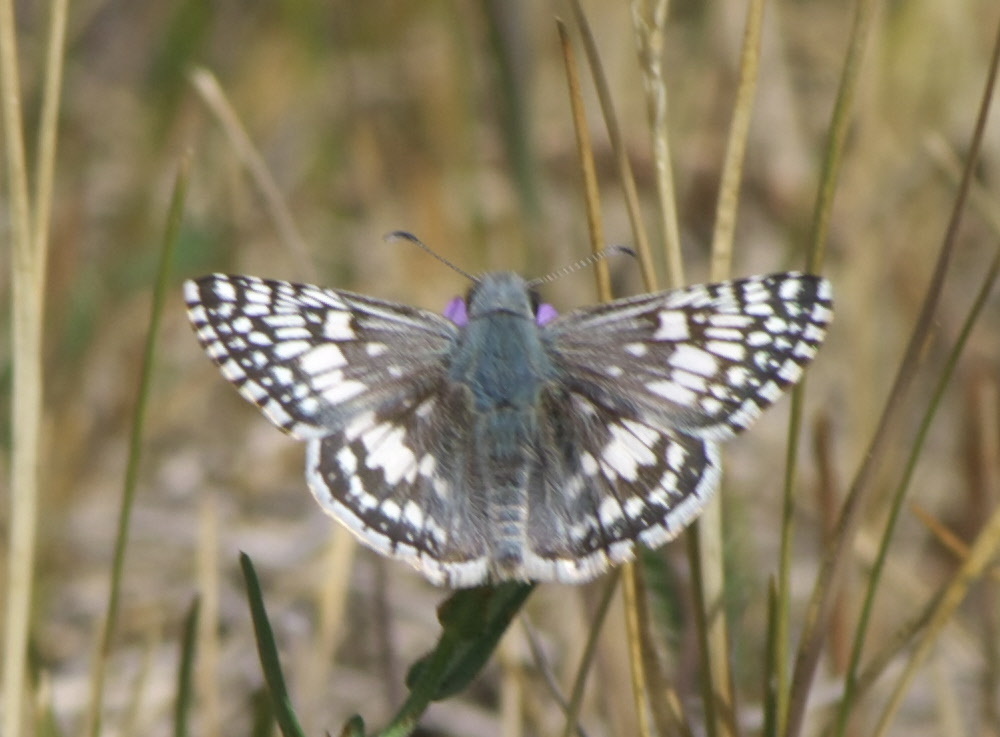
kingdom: Animalia
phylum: Arthropoda
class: Insecta
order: Lepidoptera
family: Hesperiidae
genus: Burnsius
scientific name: Burnsius communis
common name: Common checkered-skipper
